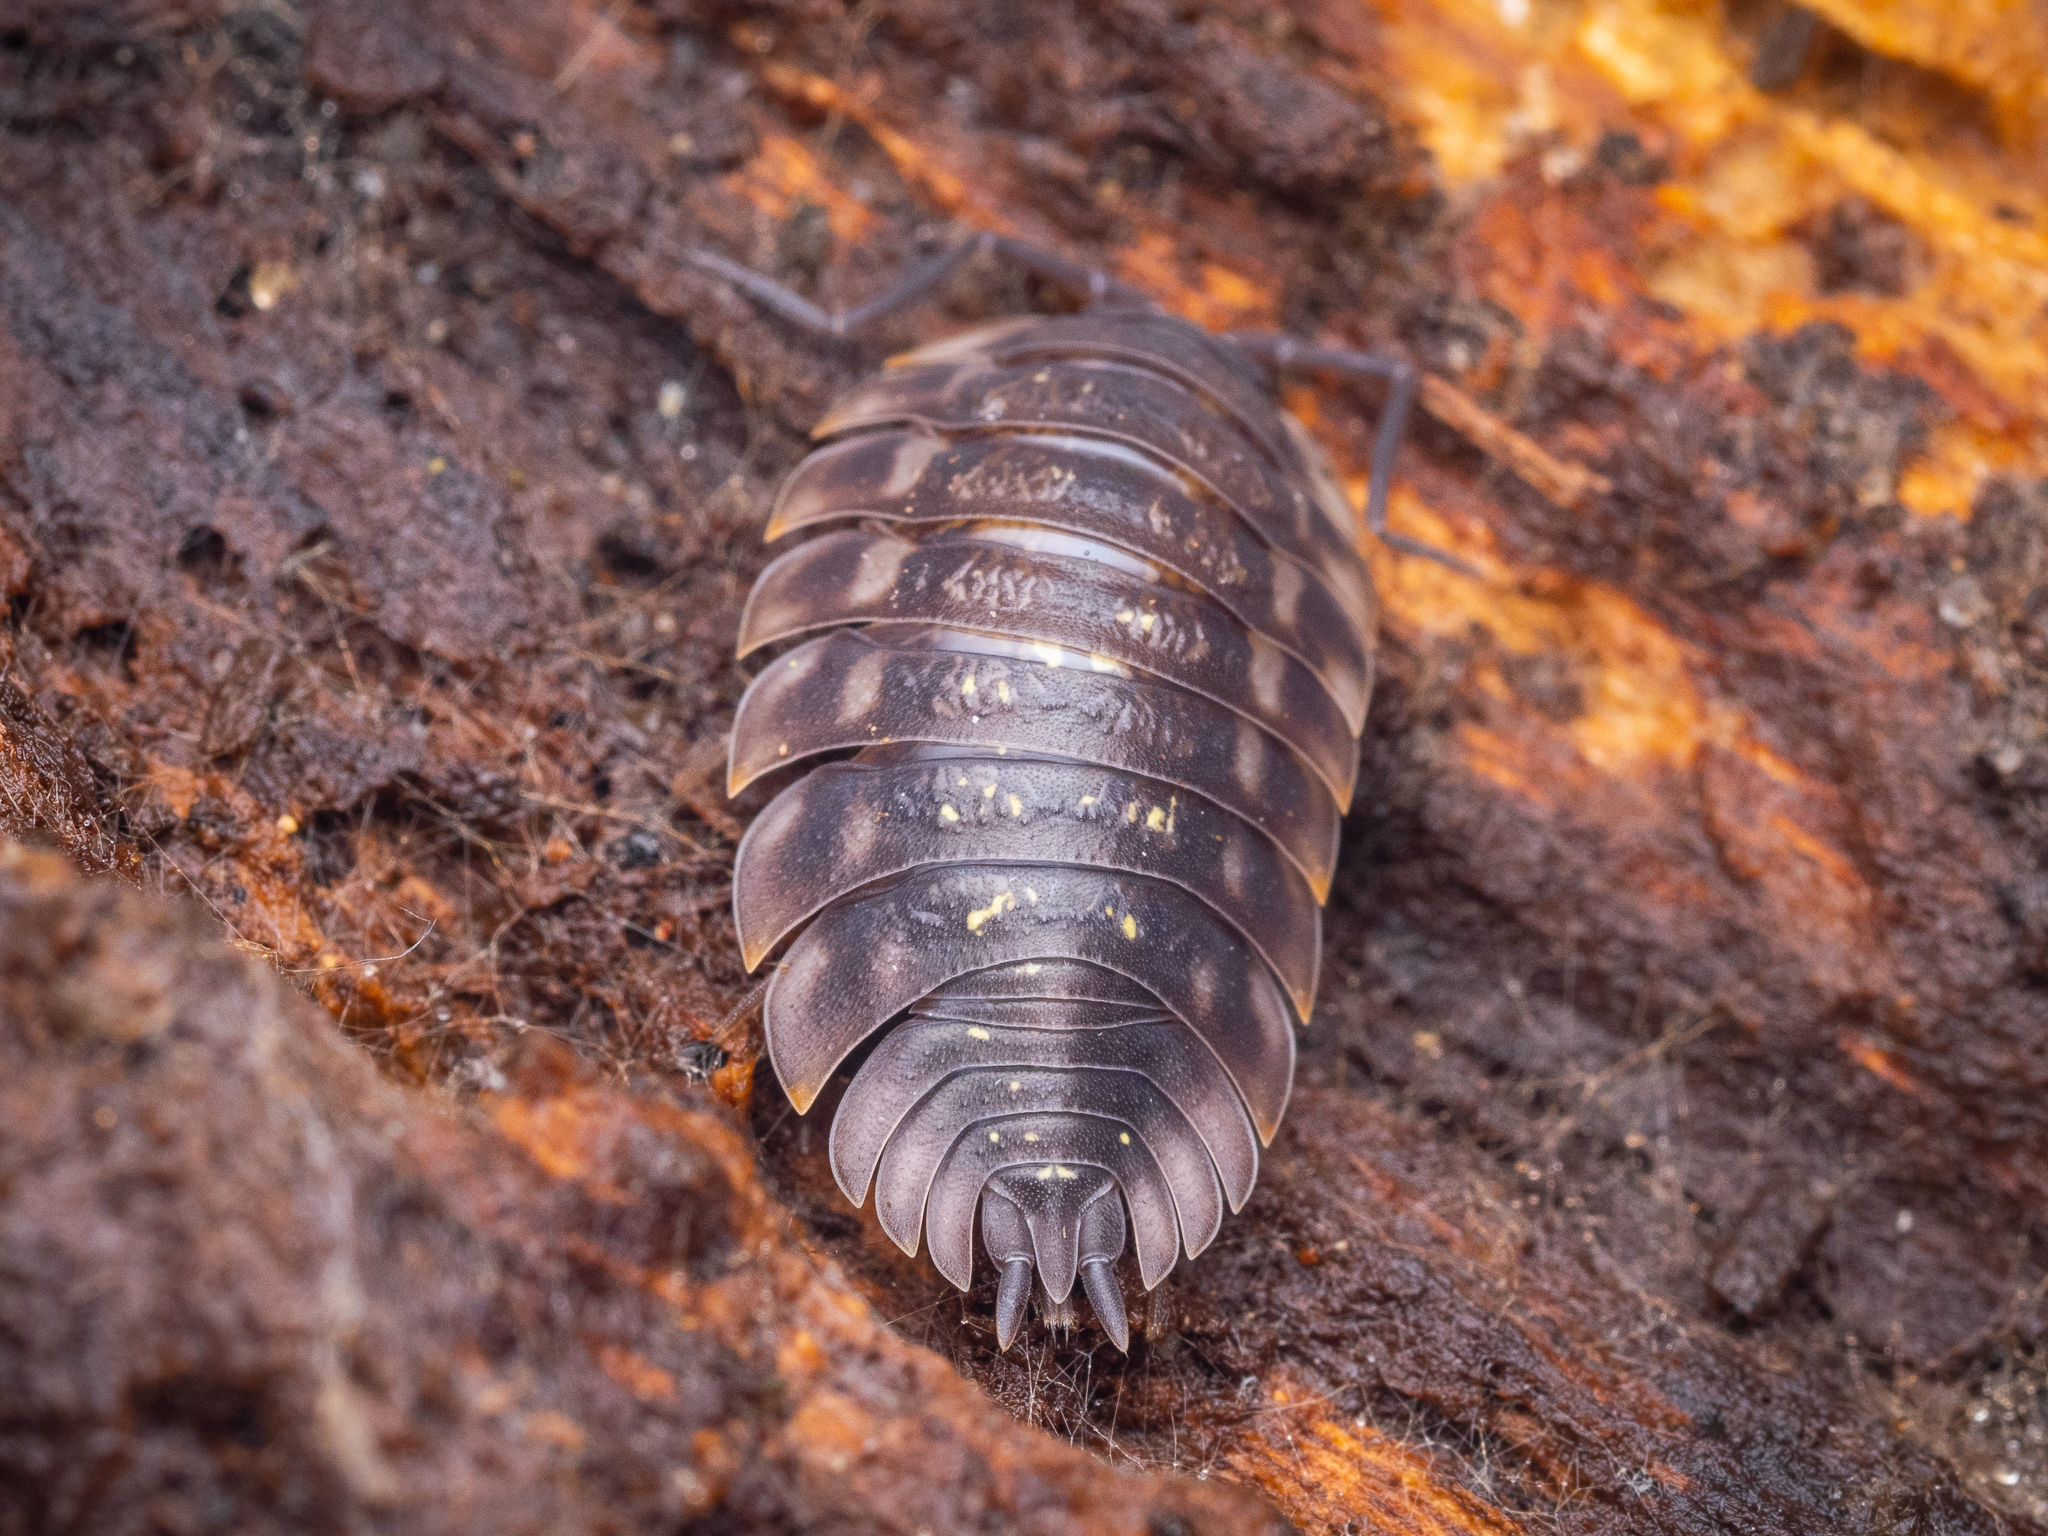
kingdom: Animalia
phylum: Arthropoda
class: Malacostraca
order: Isopoda
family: Oniscidae
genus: Oniscus
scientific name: Oniscus asellus
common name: Common shiny woodlouse
